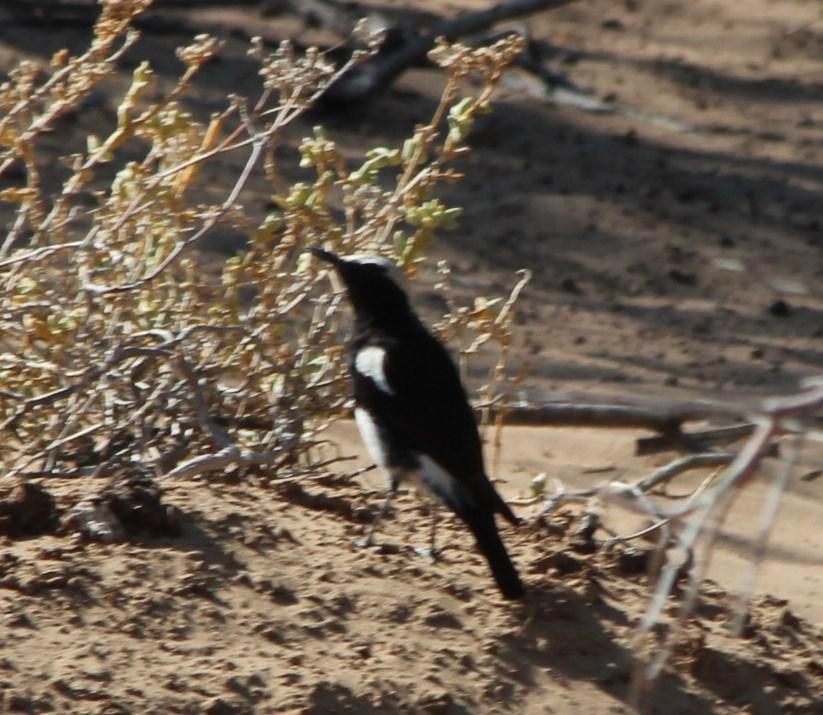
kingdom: Animalia
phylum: Chordata
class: Aves
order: Passeriformes
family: Muscicapidae
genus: Oenanthe
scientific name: Oenanthe monticola
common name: Mountain wheatear
